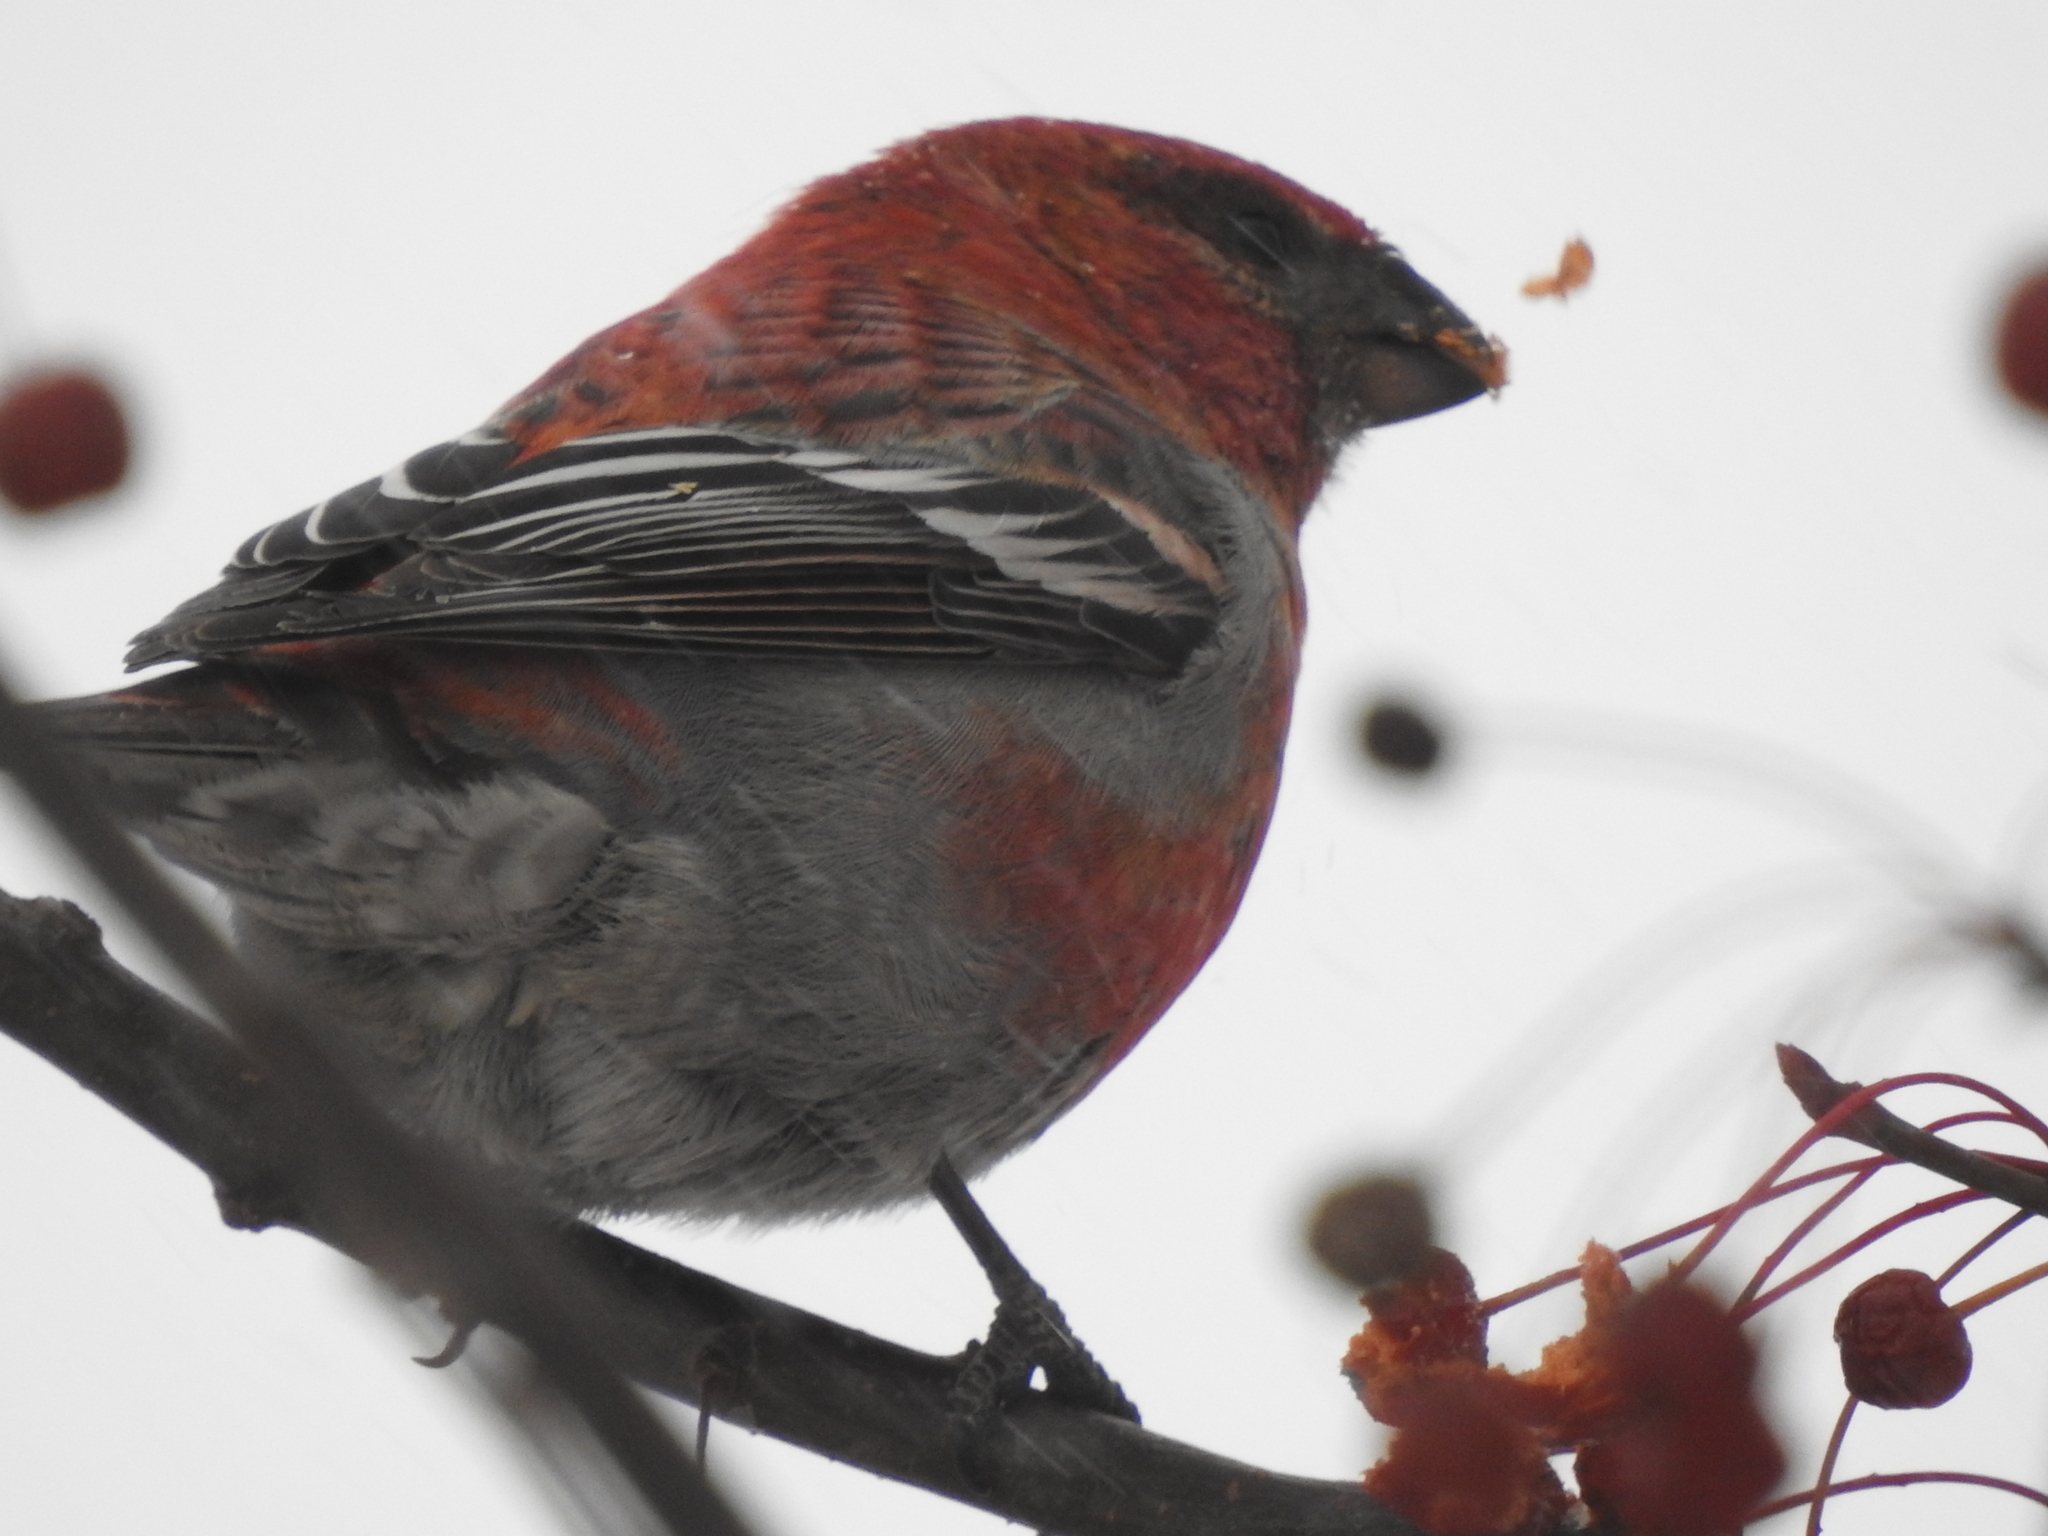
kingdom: Animalia
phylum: Chordata
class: Aves
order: Passeriformes
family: Fringillidae
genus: Pinicola
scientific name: Pinicola enucleator
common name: Pine grosbeak
